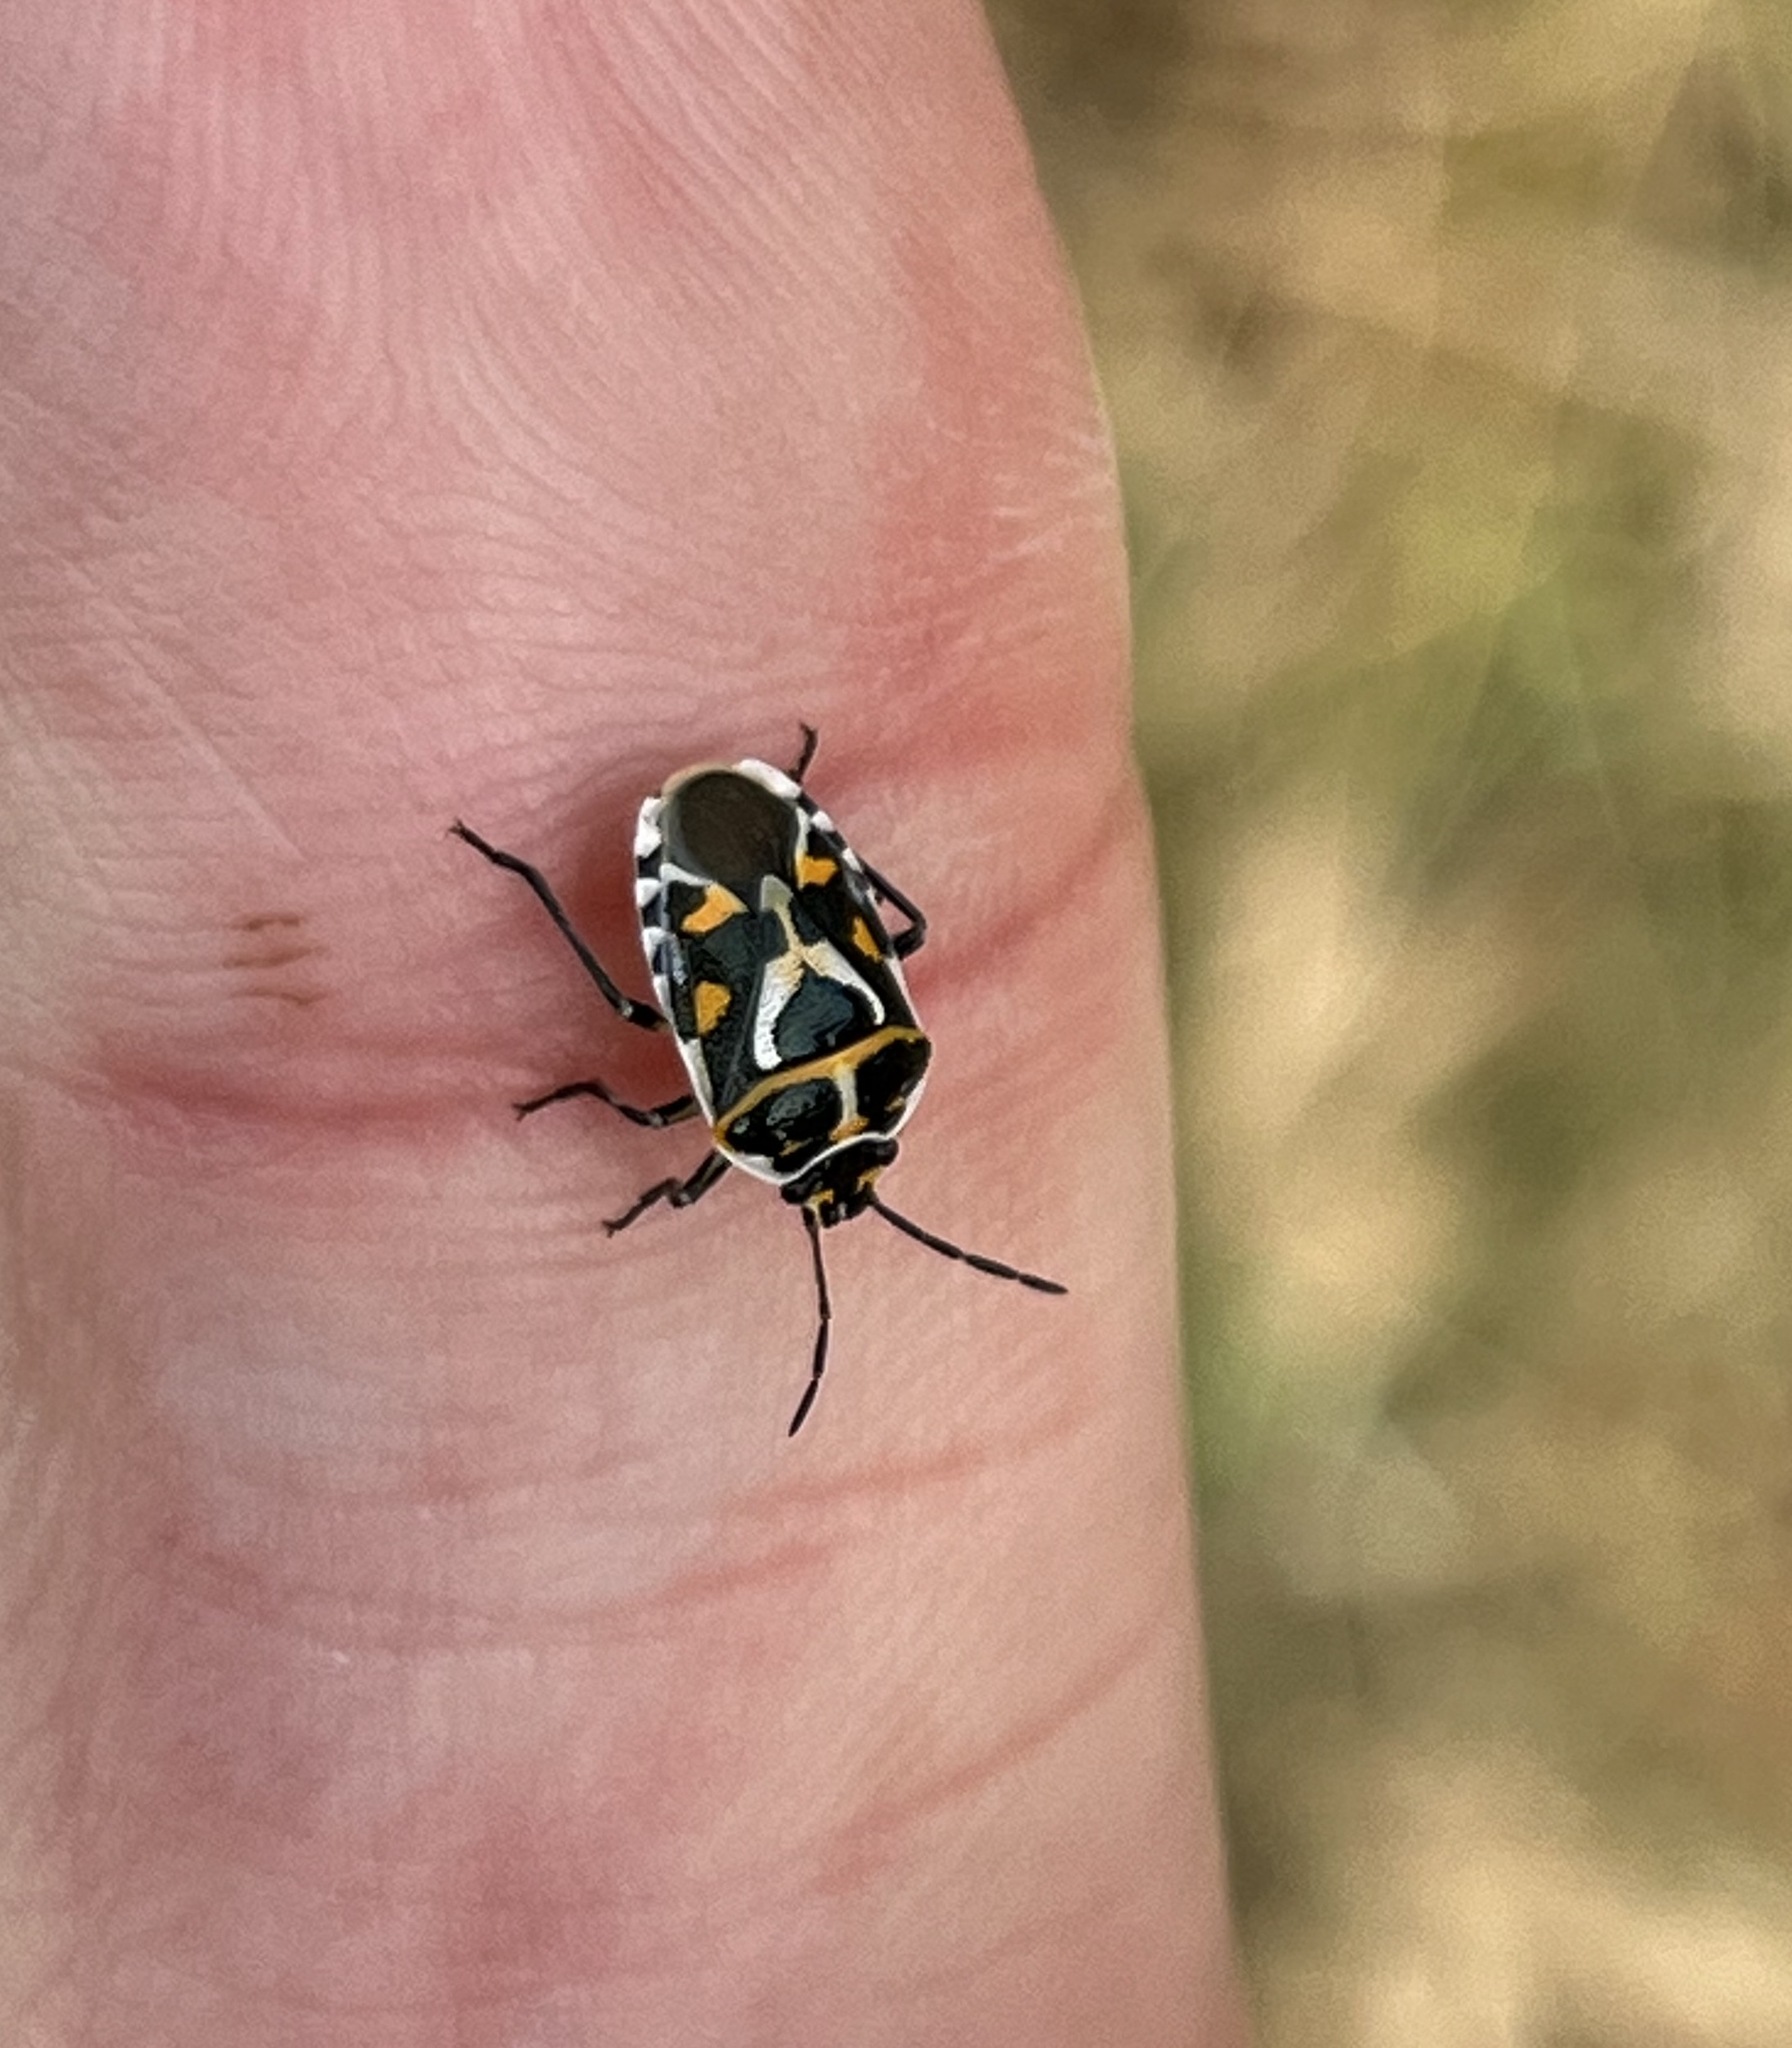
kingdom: Animalia
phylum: Arthropoda
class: Insecta
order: Hemiptera
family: Pentatomidae
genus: Eurydema
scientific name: Eurydema ornata
